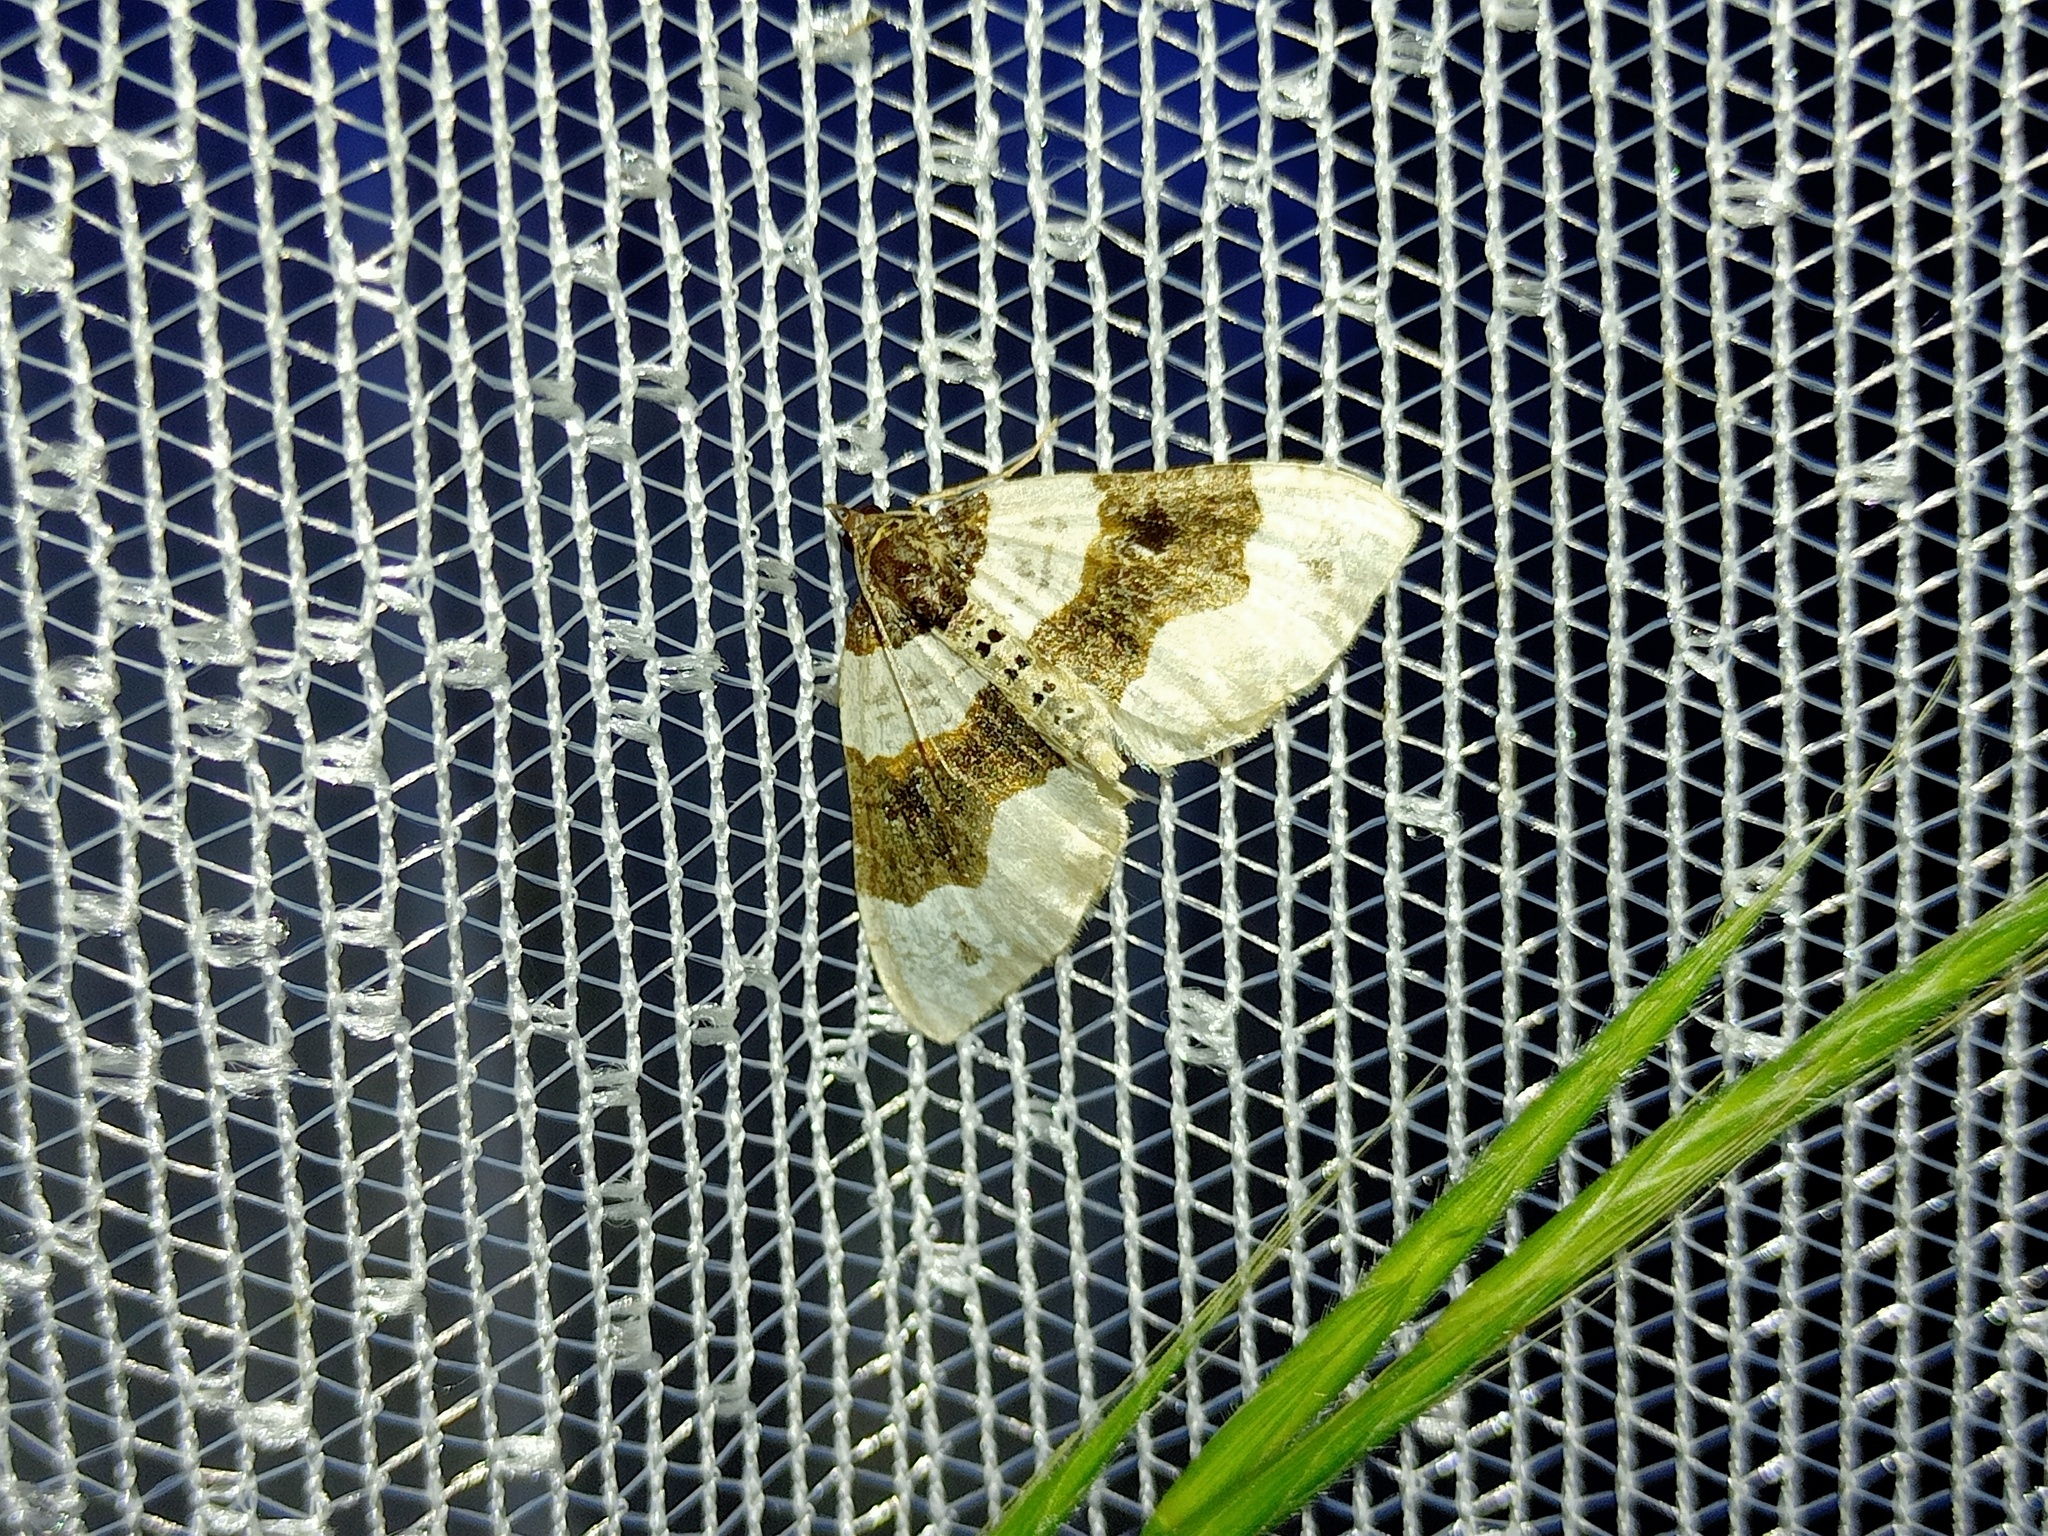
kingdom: Animalia
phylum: Arthropoda
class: Insecta
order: Lepidoptera
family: Geometridae
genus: Cosmorhoe
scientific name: Cosmorhoe ocellata
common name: Purple bar
